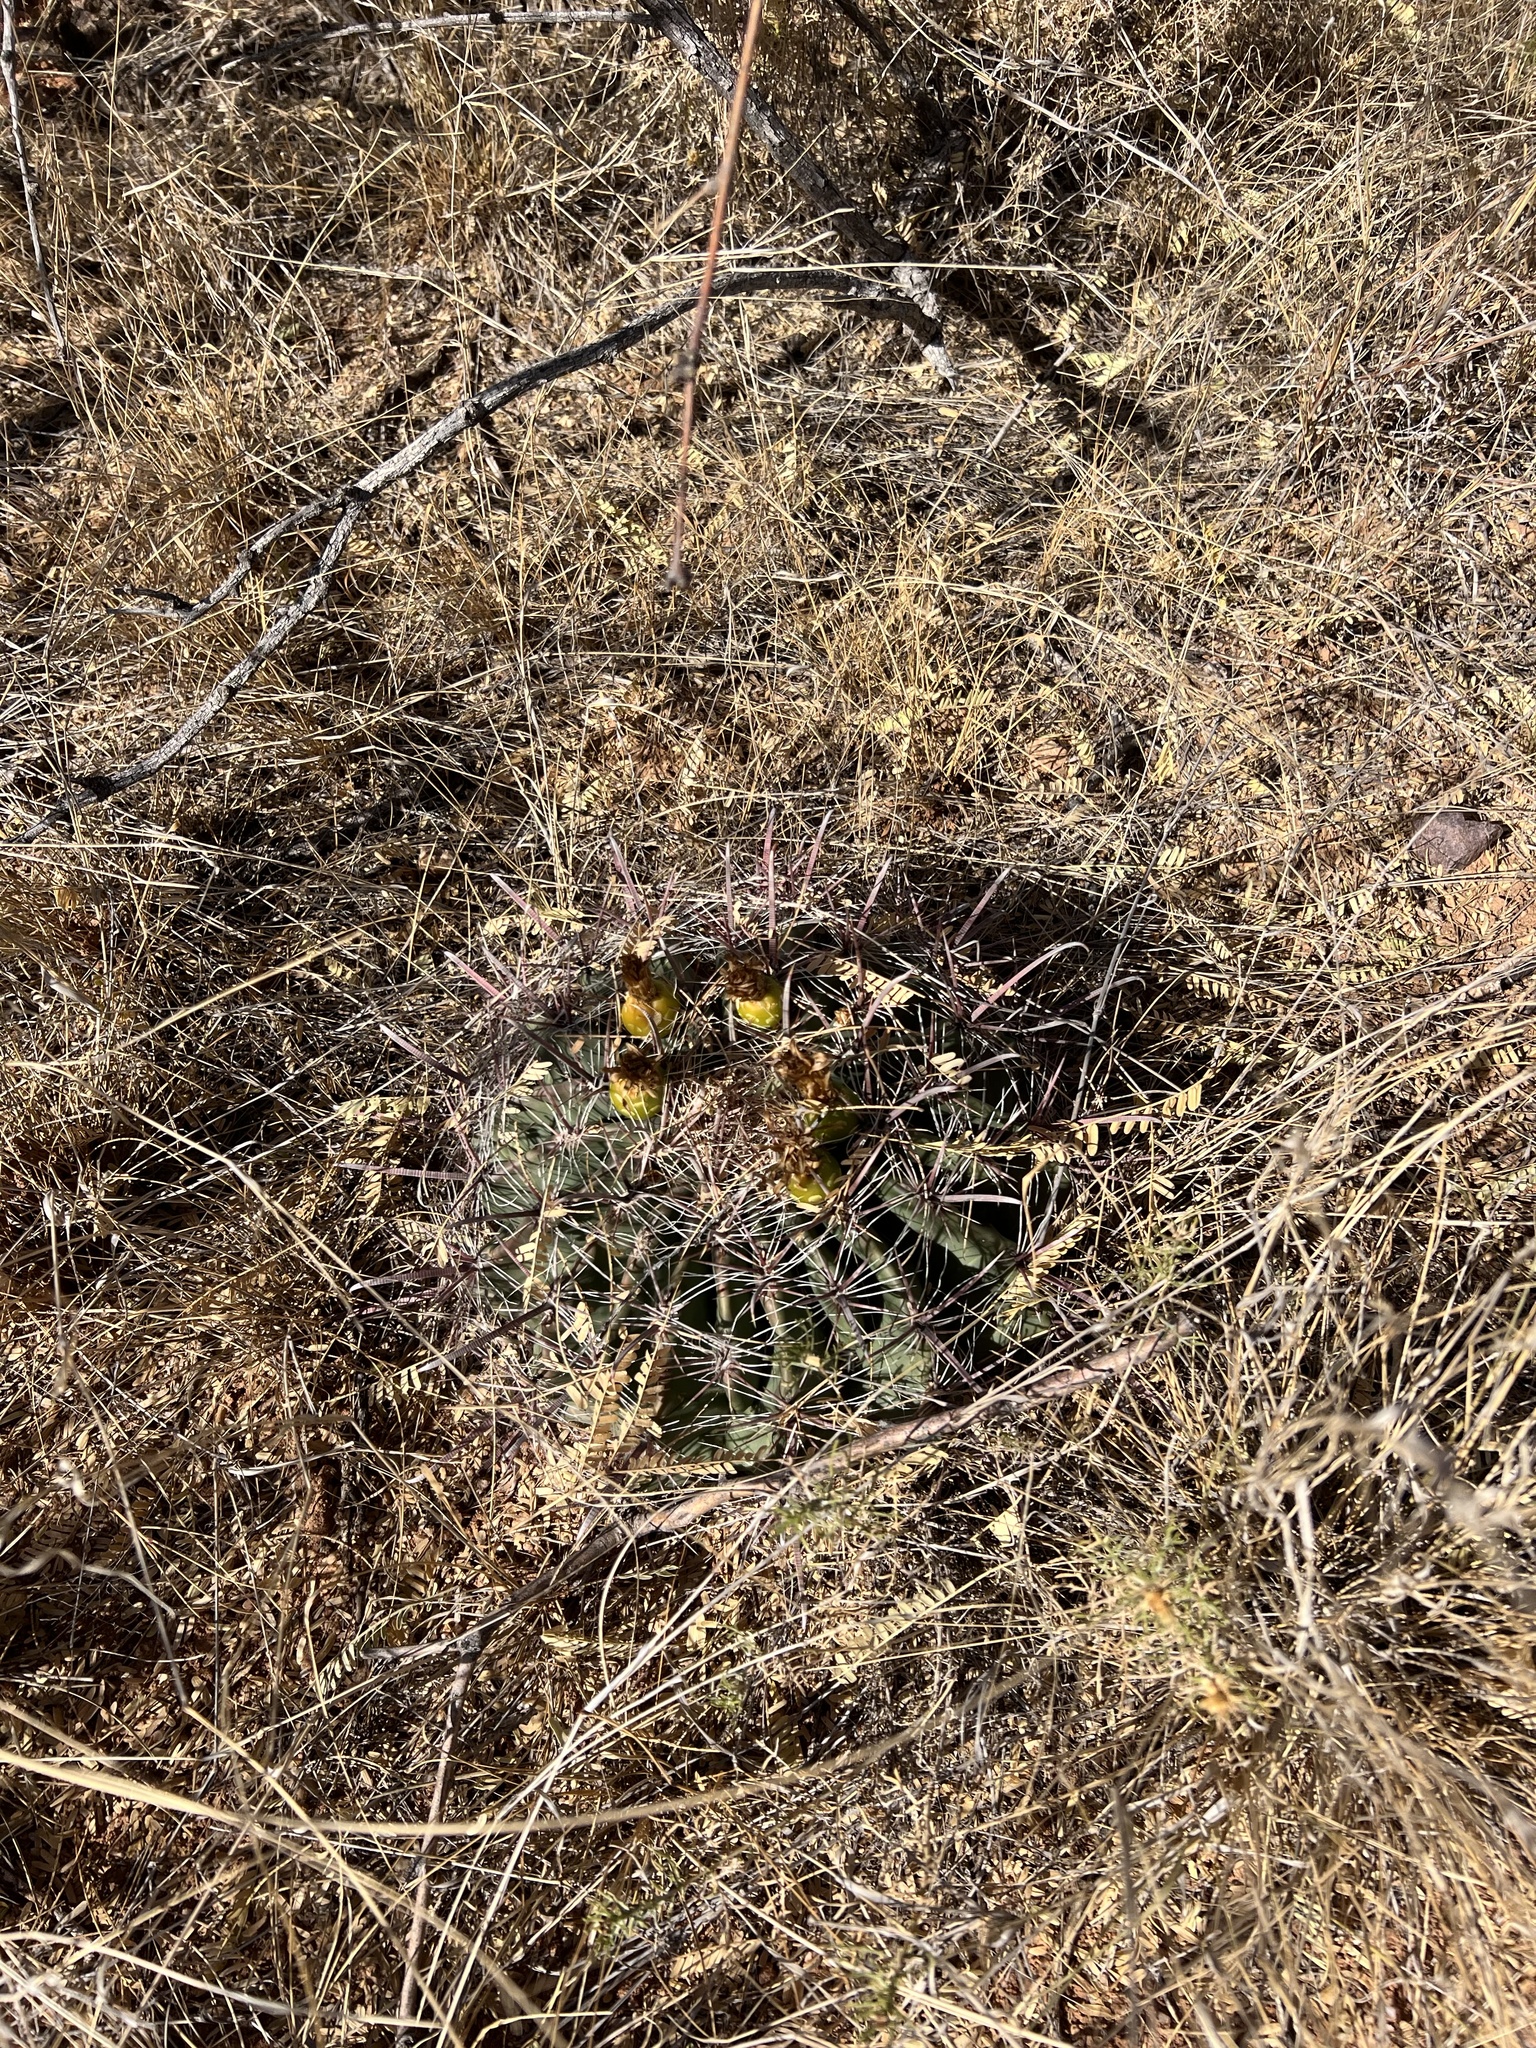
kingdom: Plantae
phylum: Tracheophyta
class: Magnoliopsida
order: Caryophyllales
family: Cactaceae
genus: Ferocactus
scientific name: Ferocactus wislizeni
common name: Candy barrel cactus
